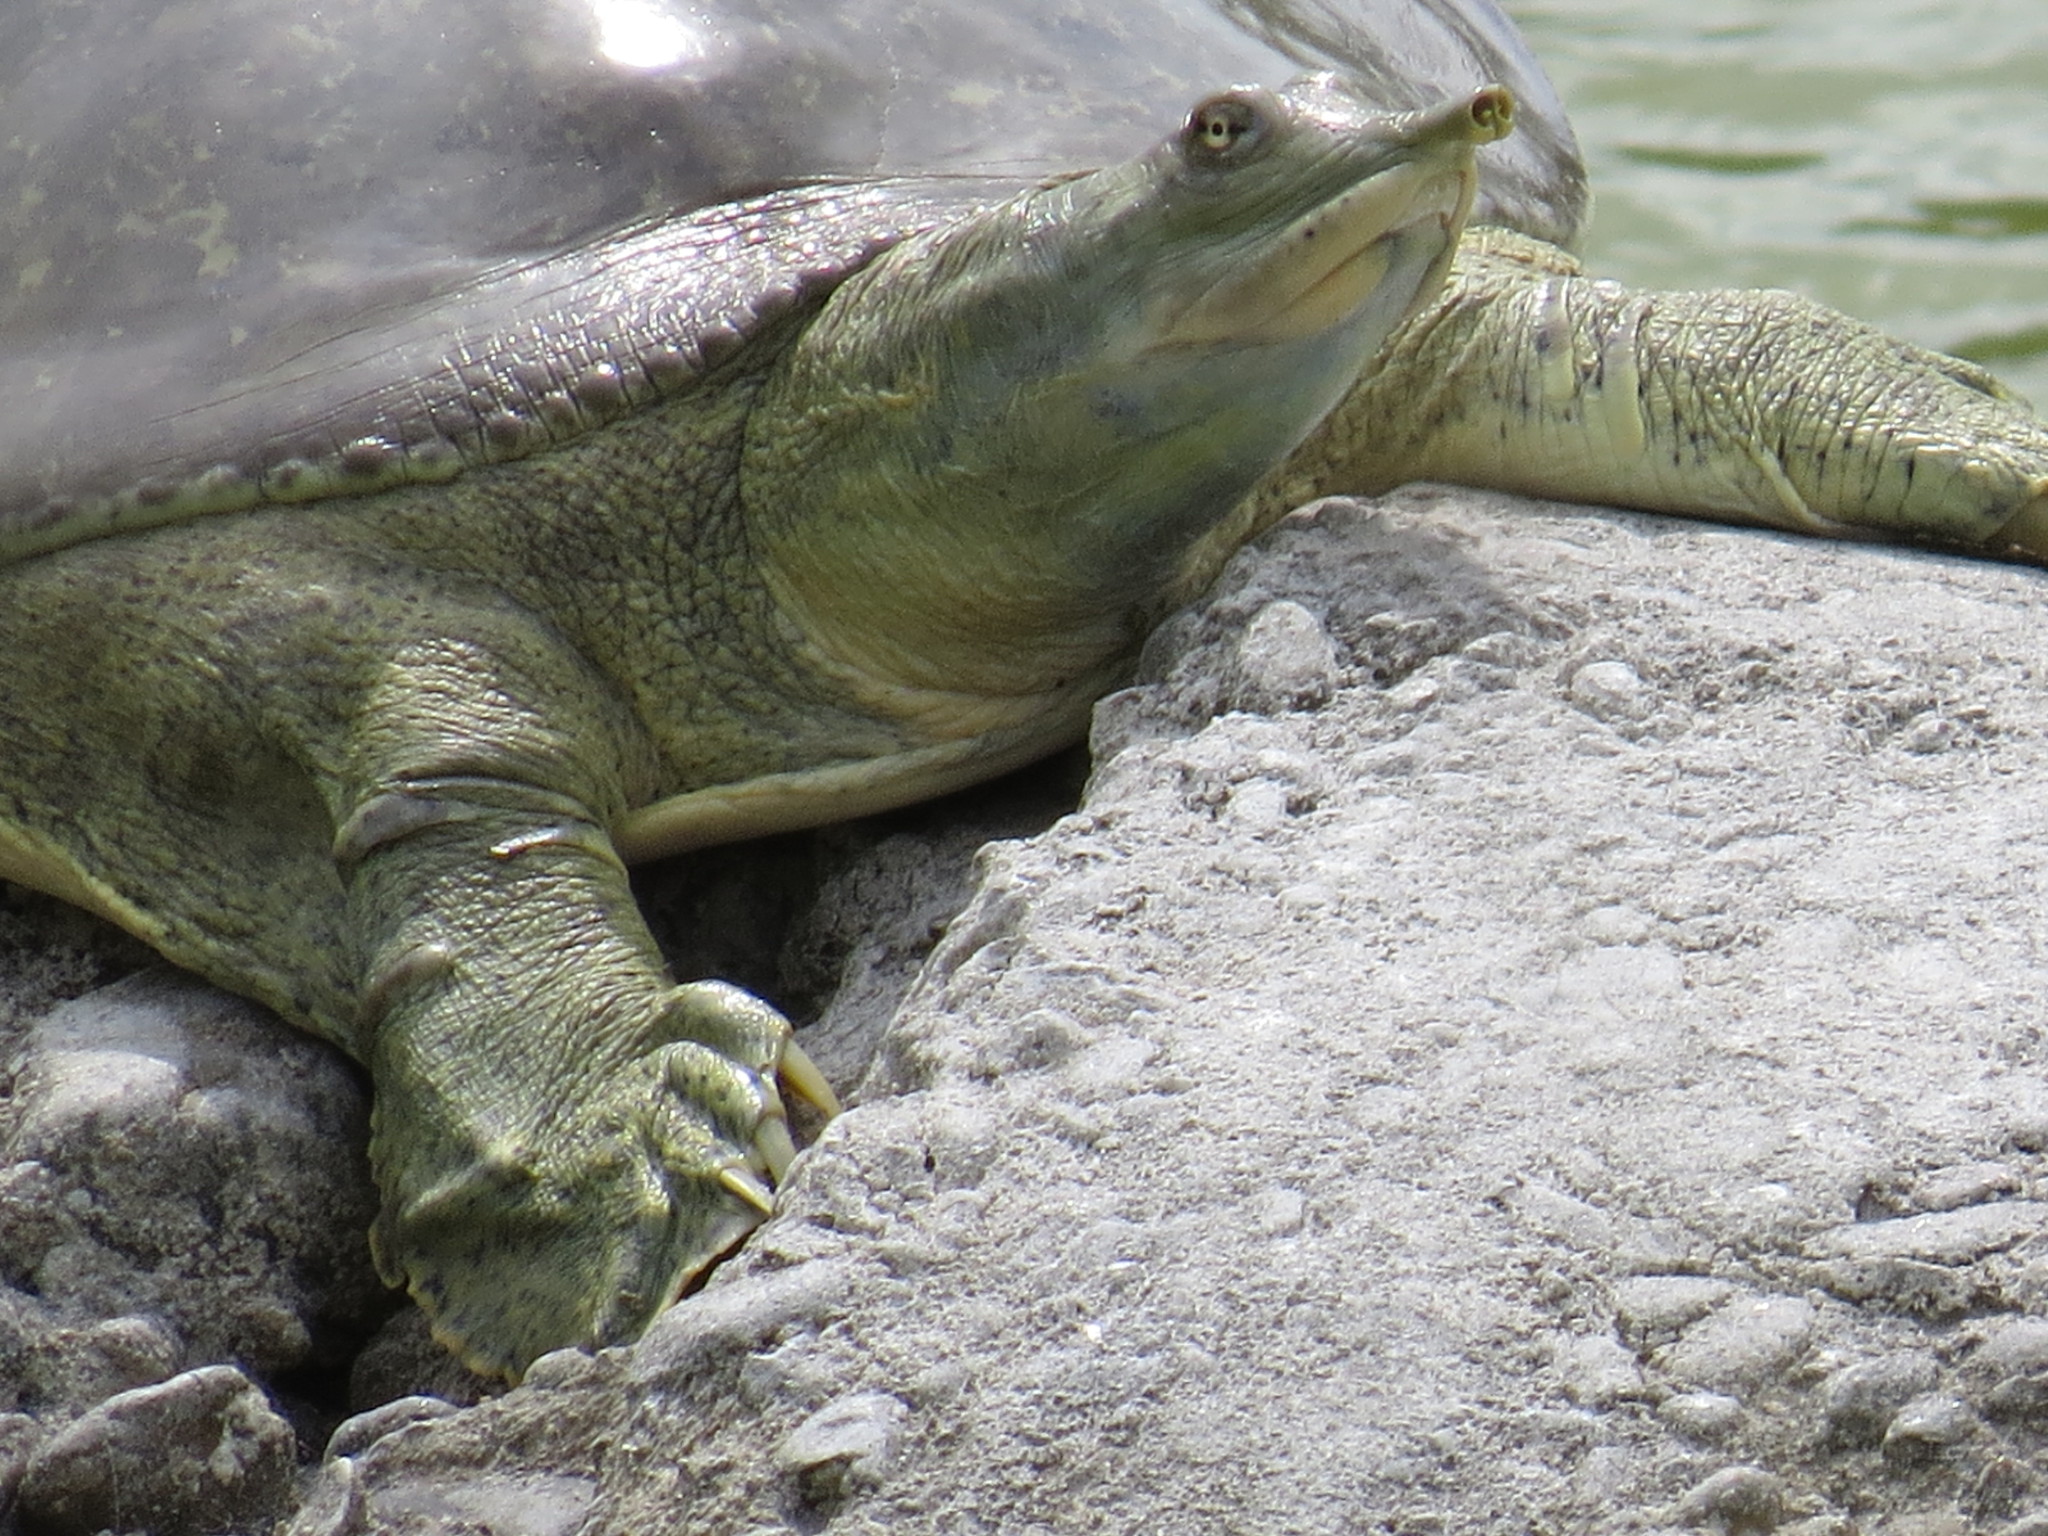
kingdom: Animalia
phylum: Chordata
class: Testudines
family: Trionychidae
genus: Apalone
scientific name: Apalone spinifera
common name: Spiny softshell turtle
